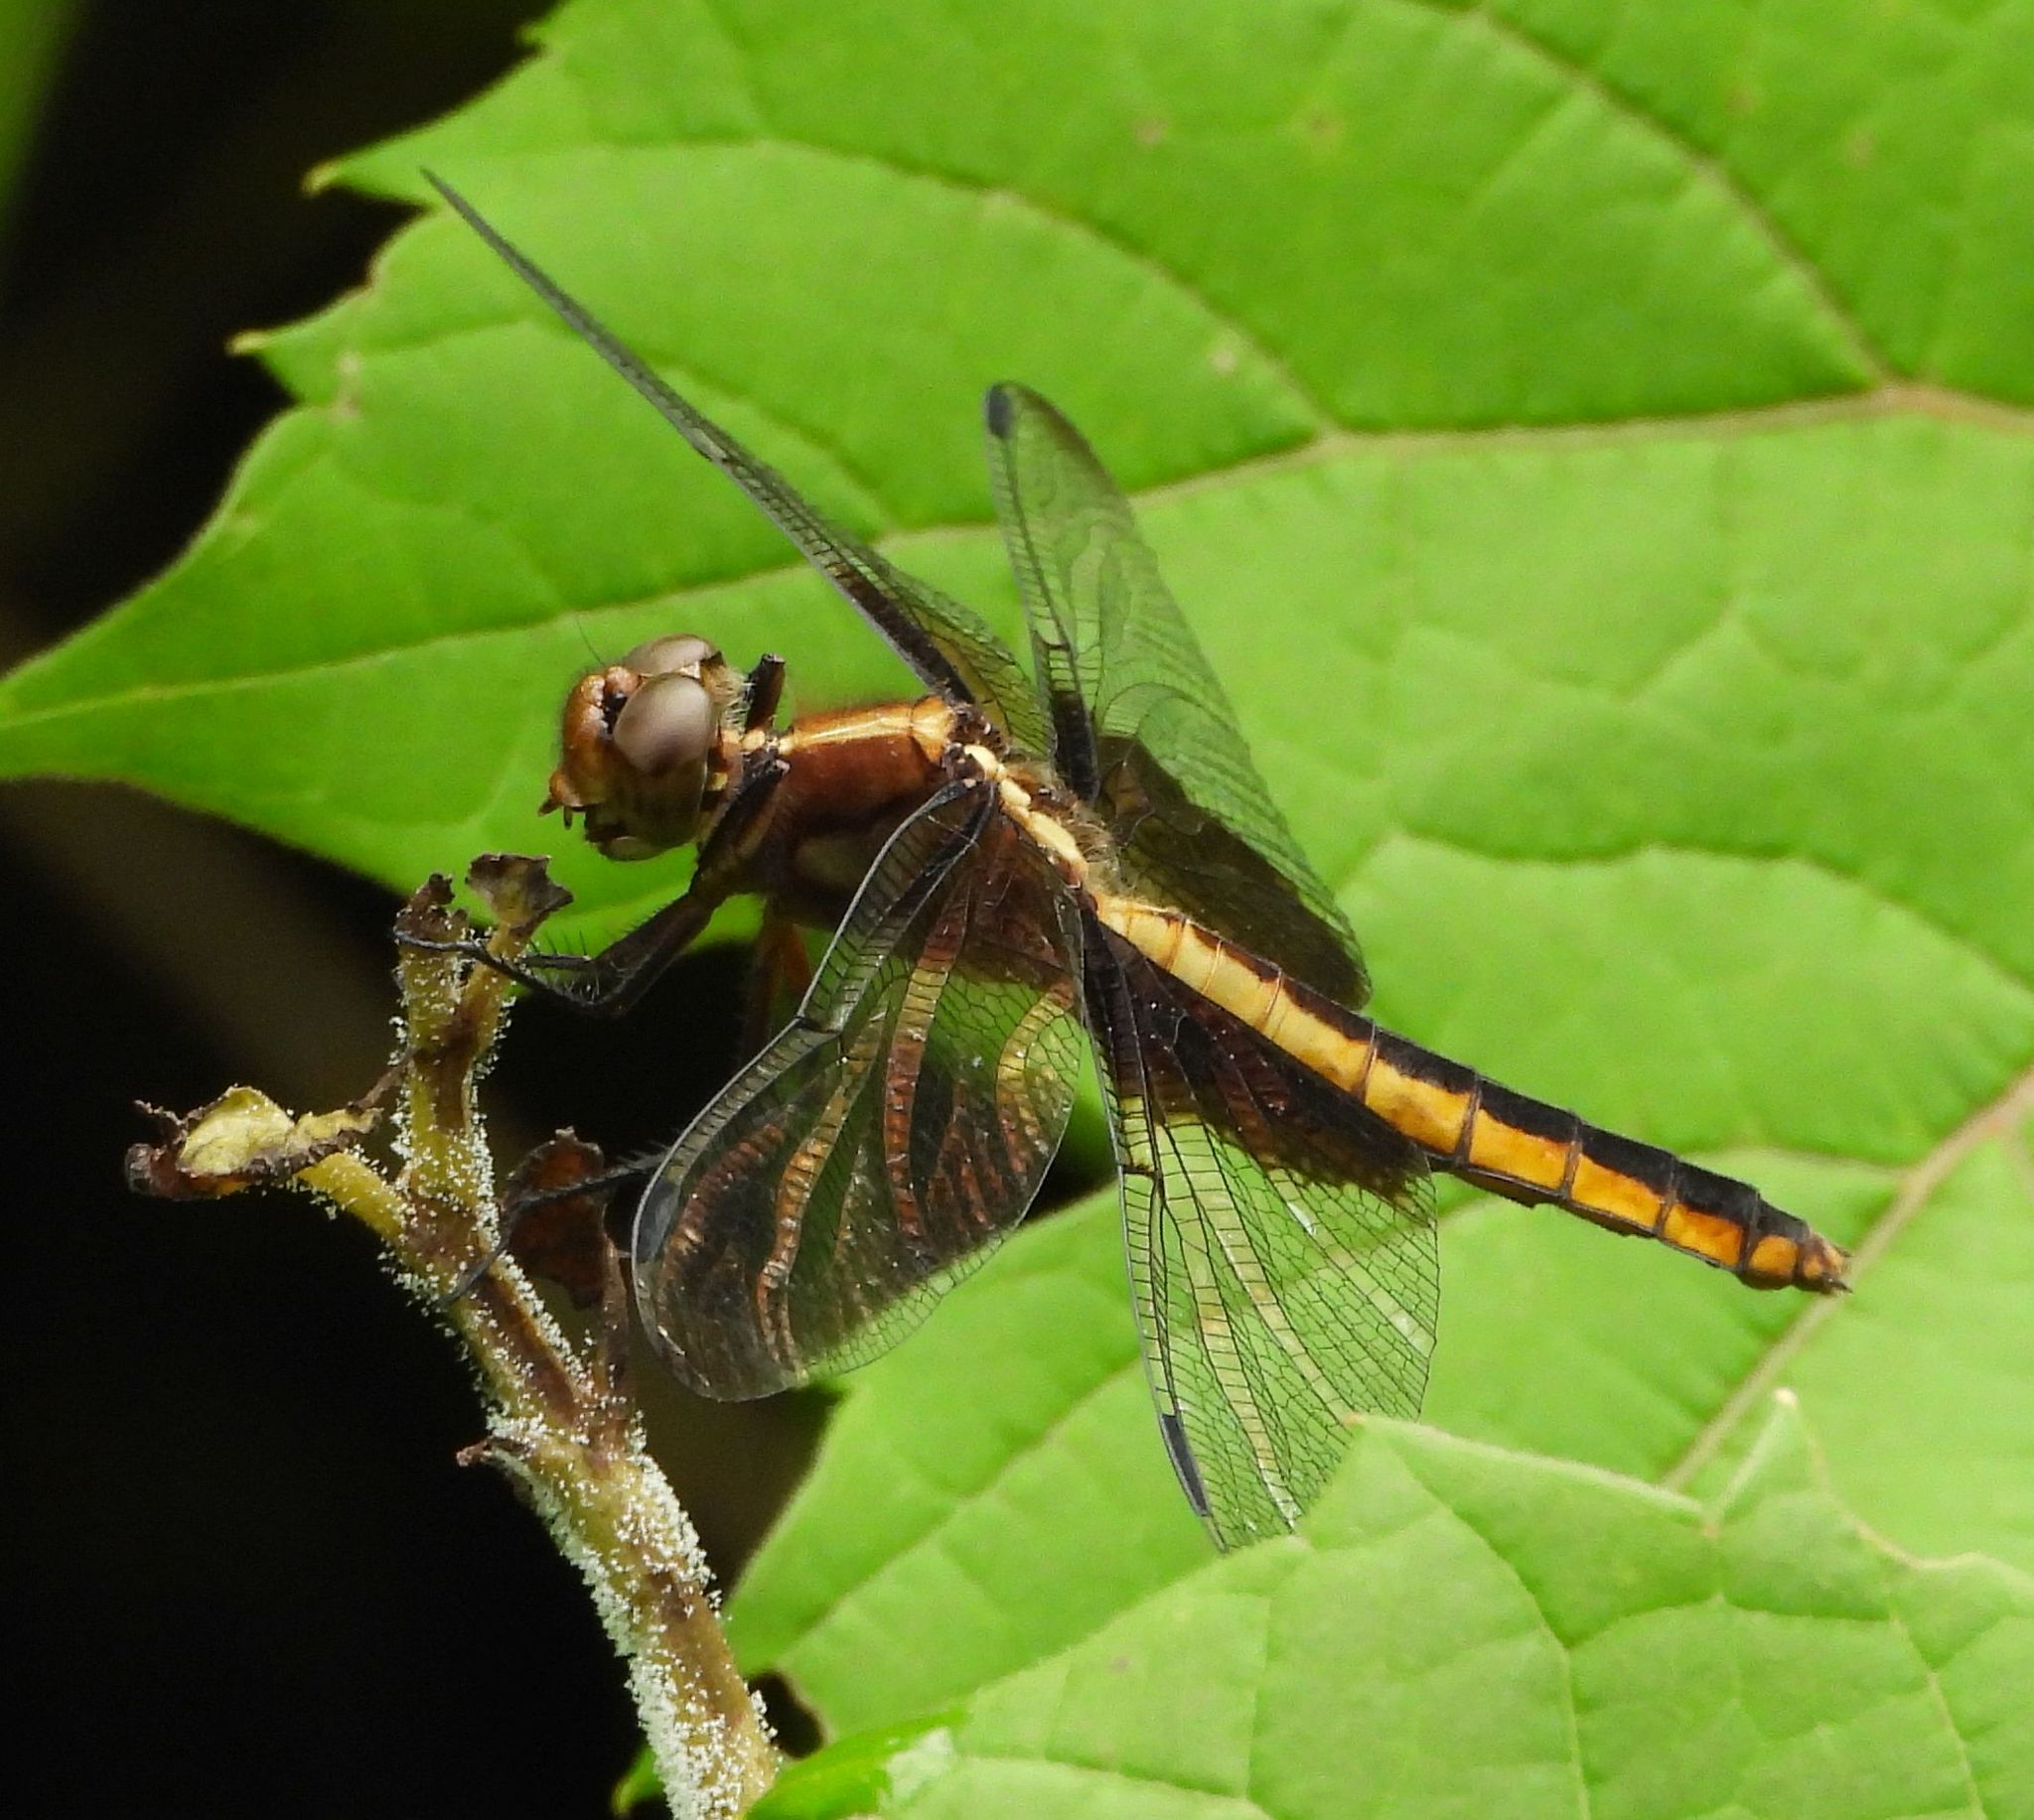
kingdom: Animalia
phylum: Arthropoda
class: Insecta
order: Odonata
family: Libellulidae
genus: Libellula
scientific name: Libellula luctuosa
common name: Widow skimmer
